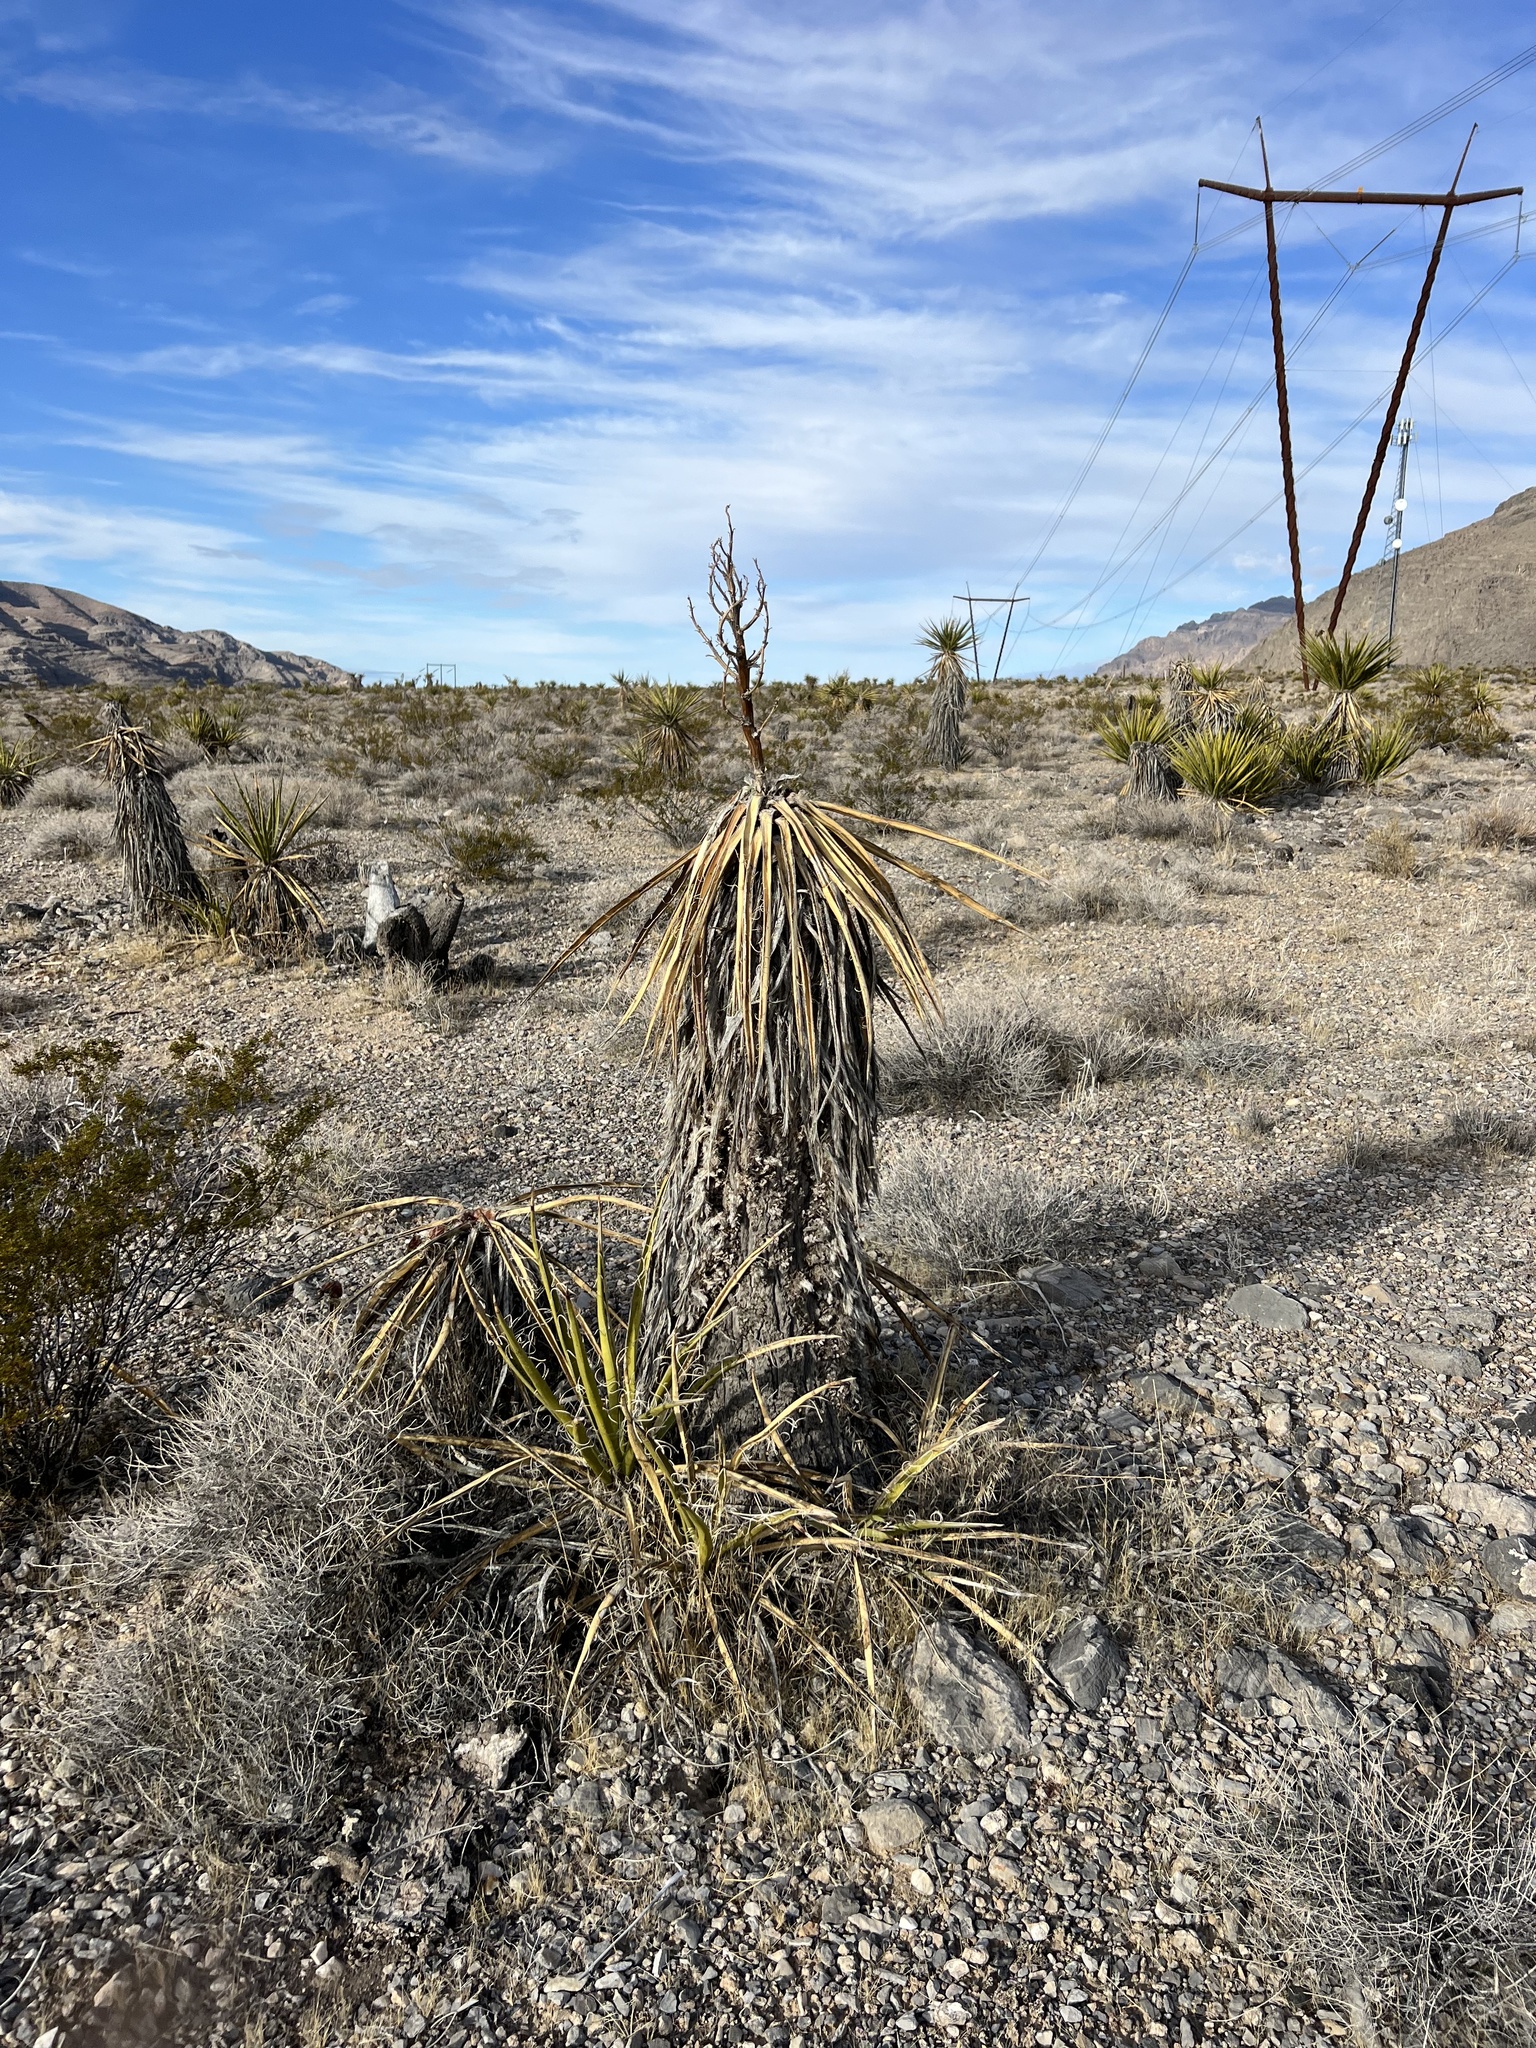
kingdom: Plantae
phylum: Tracheophyta
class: Liliopsida
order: Asparagales
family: Asparagaceae
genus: Yucca
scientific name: Yucca schidigera
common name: Mojave yucca
